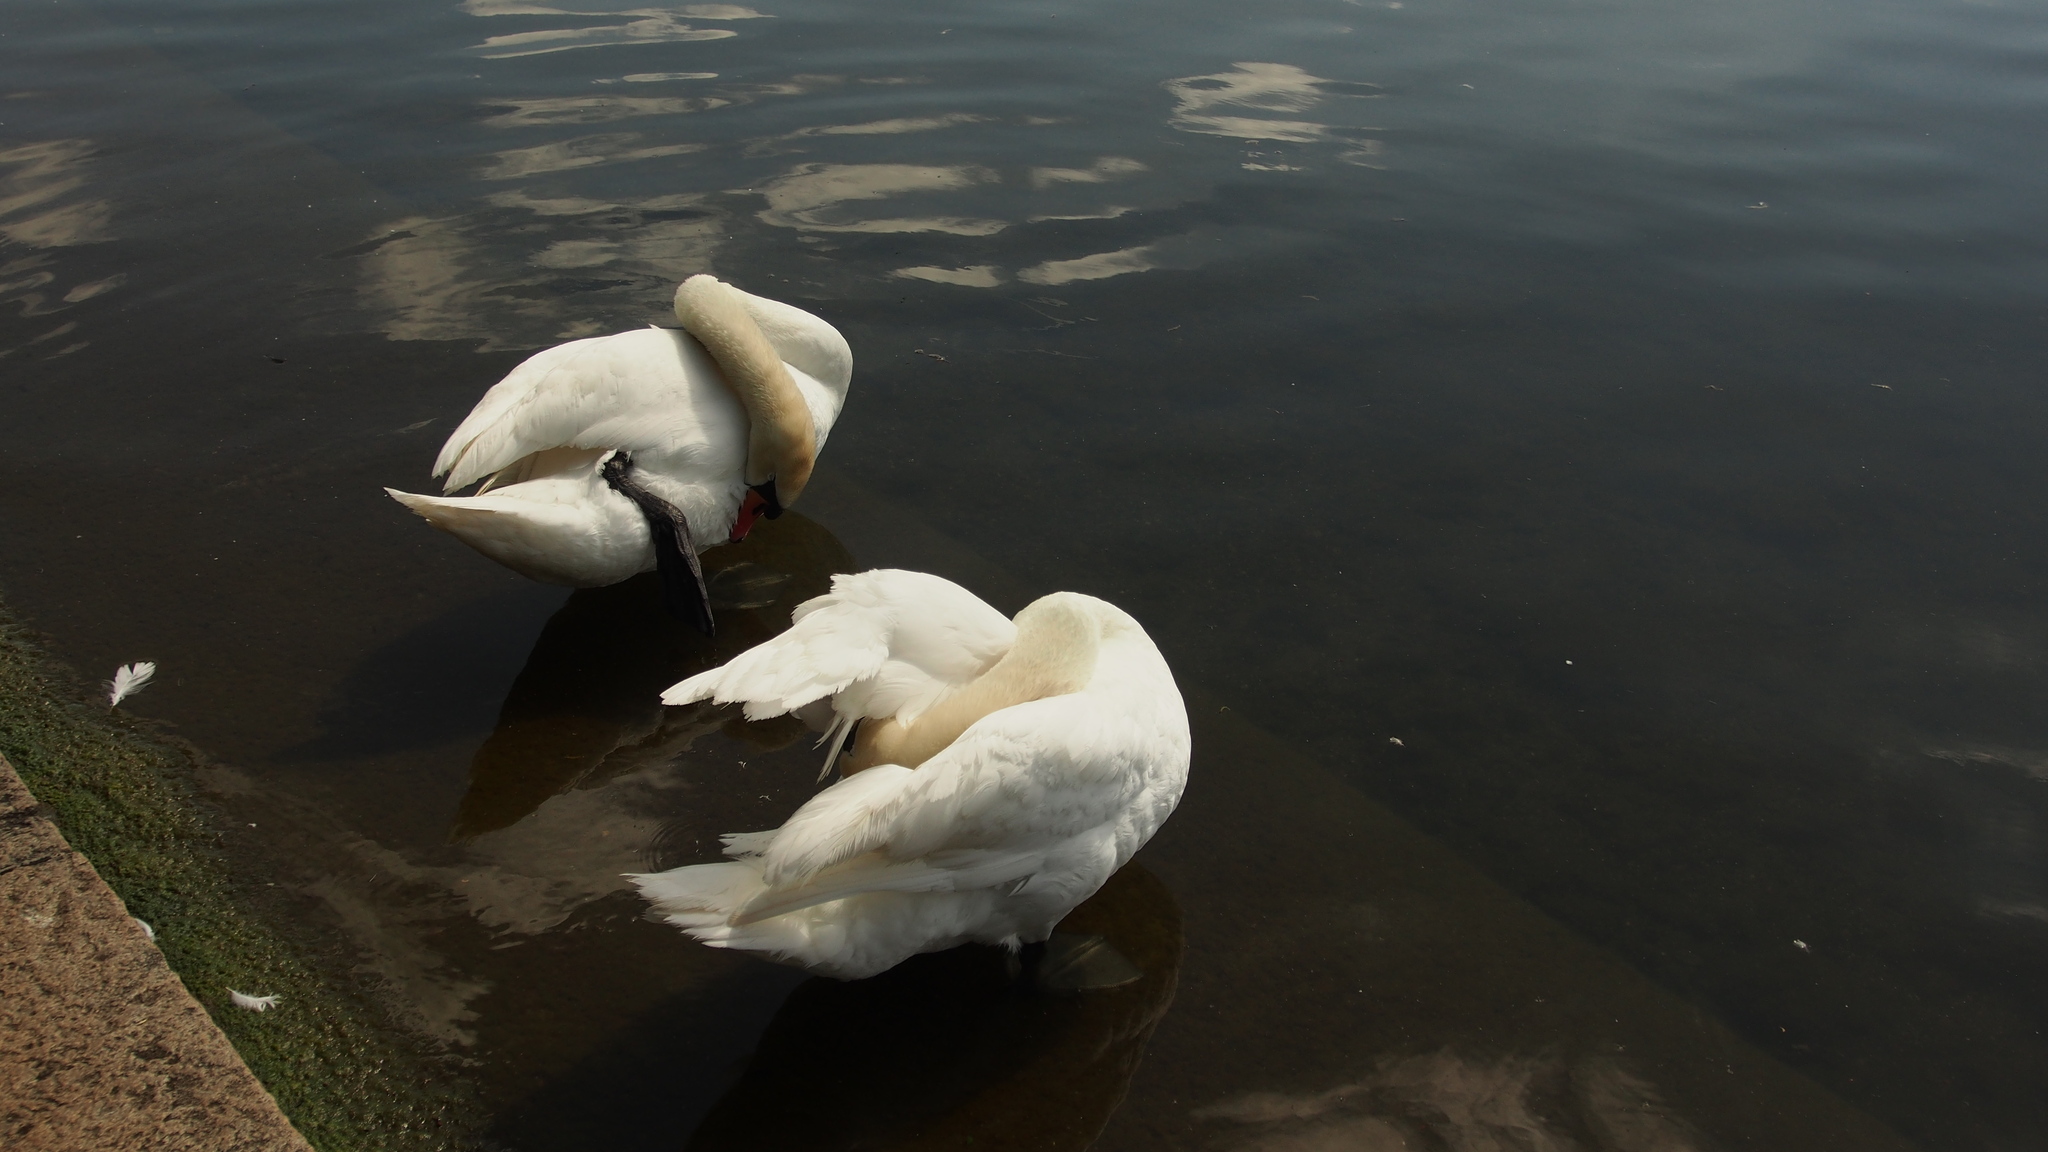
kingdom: Animalia
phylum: Chordata
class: Aves
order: Anseriformes
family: Anatidae
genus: Cygnus
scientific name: Cygnus olor
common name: Mute swan
